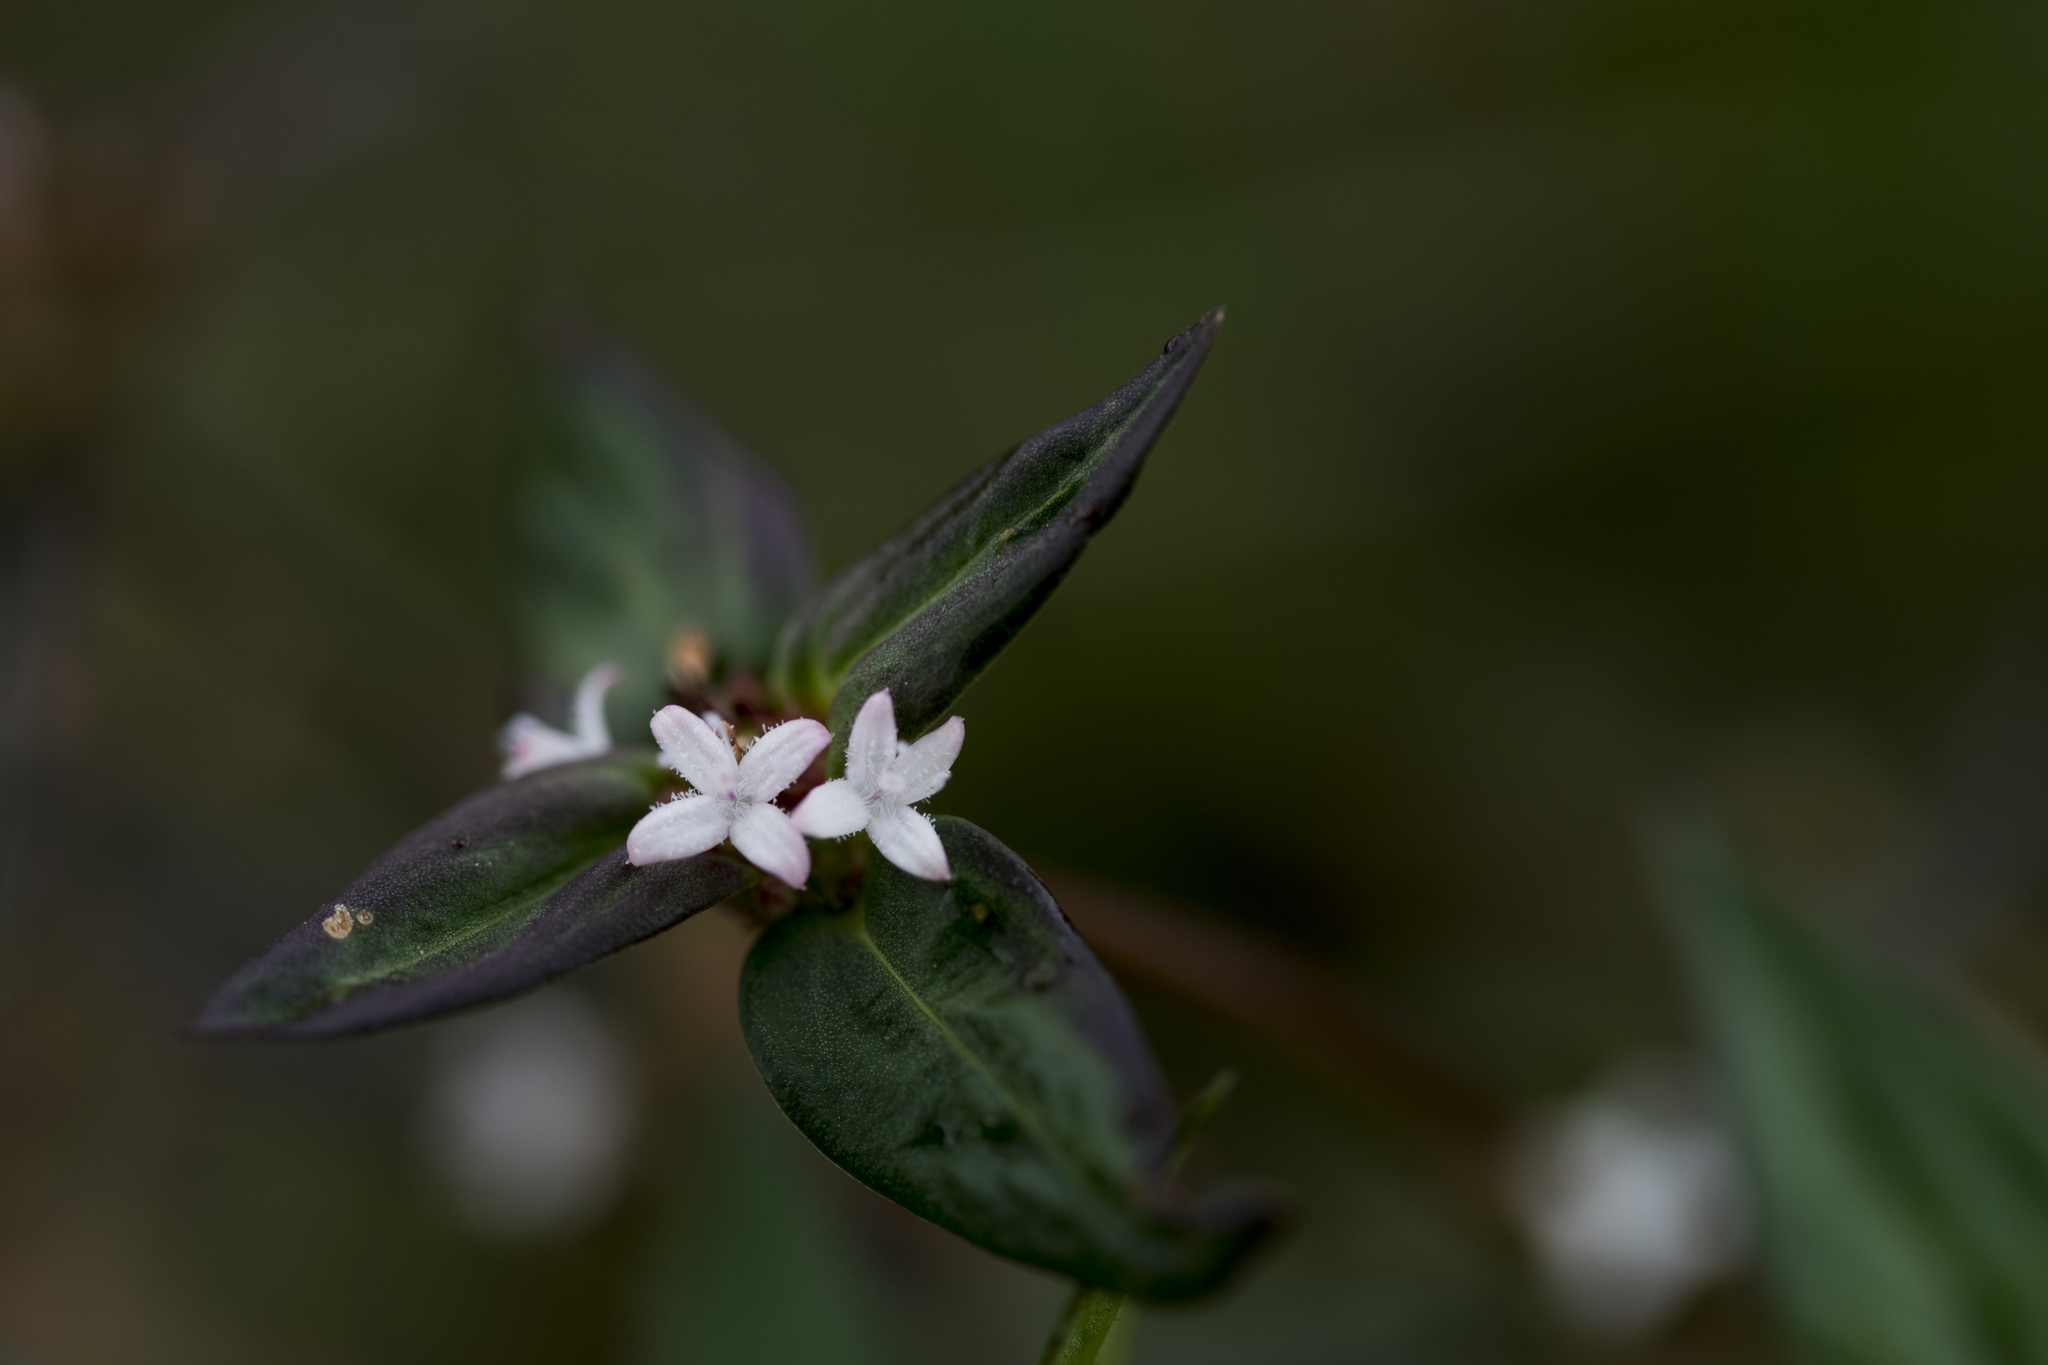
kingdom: Plantae
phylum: Tracheophyta
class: Magnoliopsida
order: Gentianales
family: Rubiaceae
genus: Spermacoce
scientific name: Spermacoce remota
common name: Woodland false buttonweed
